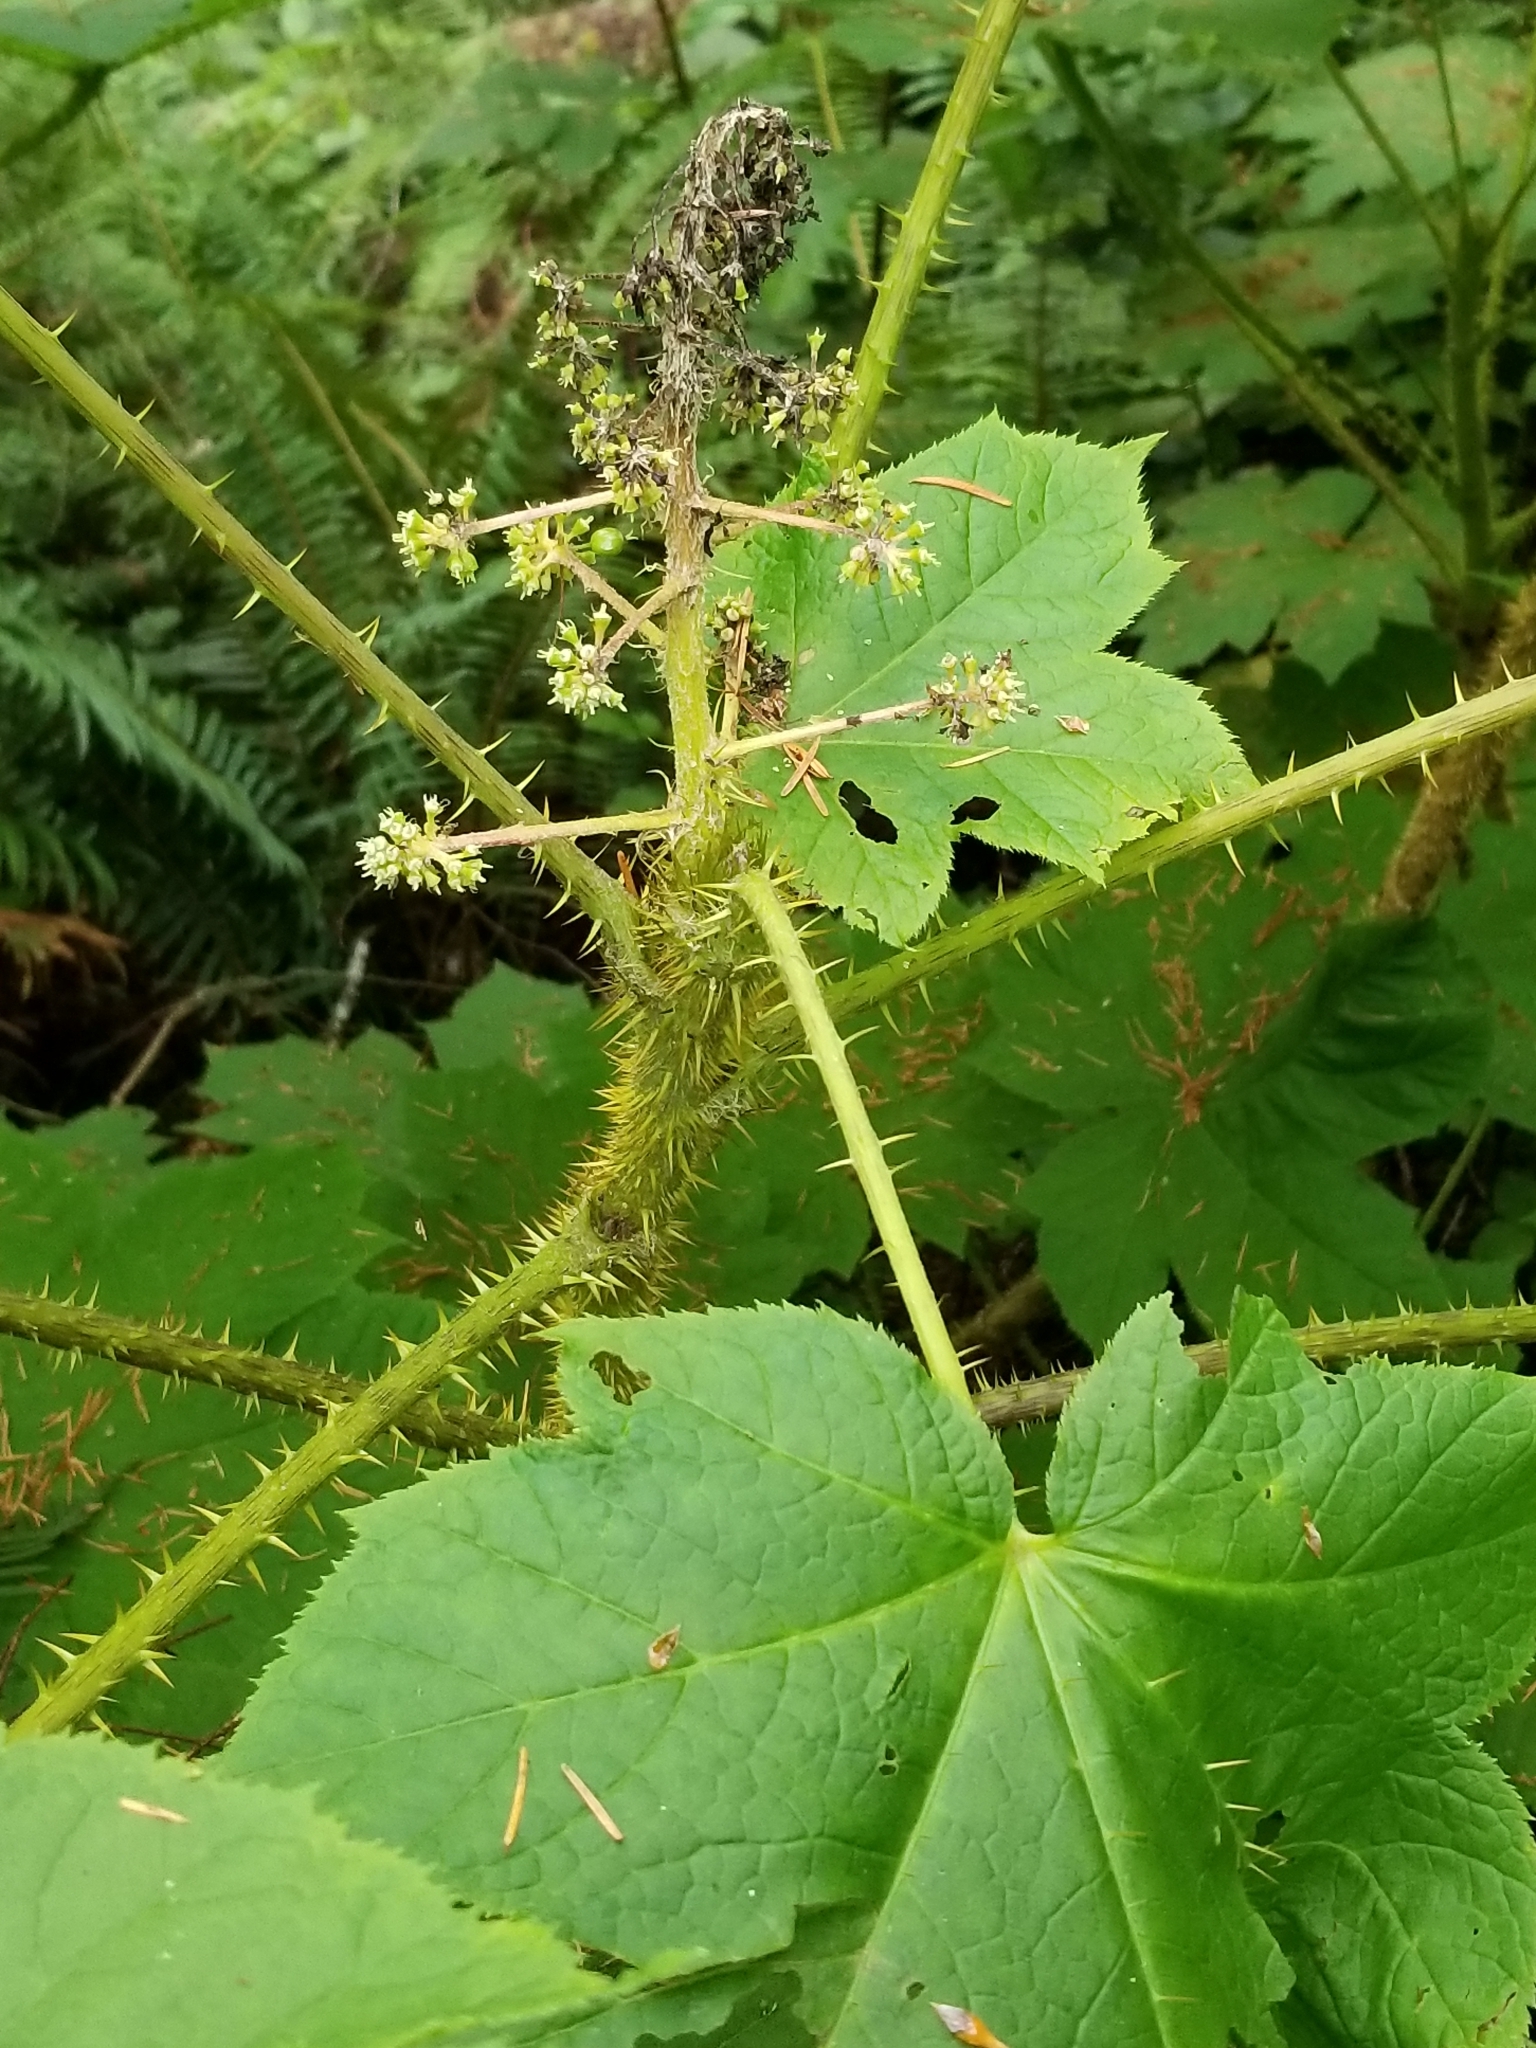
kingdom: Plantae
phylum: Tracheophyta
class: Magnoliopsida
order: Apiales
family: Araliaceae
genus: Oplopanax
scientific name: Oplopanax horridus
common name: Devil's walking-stick
